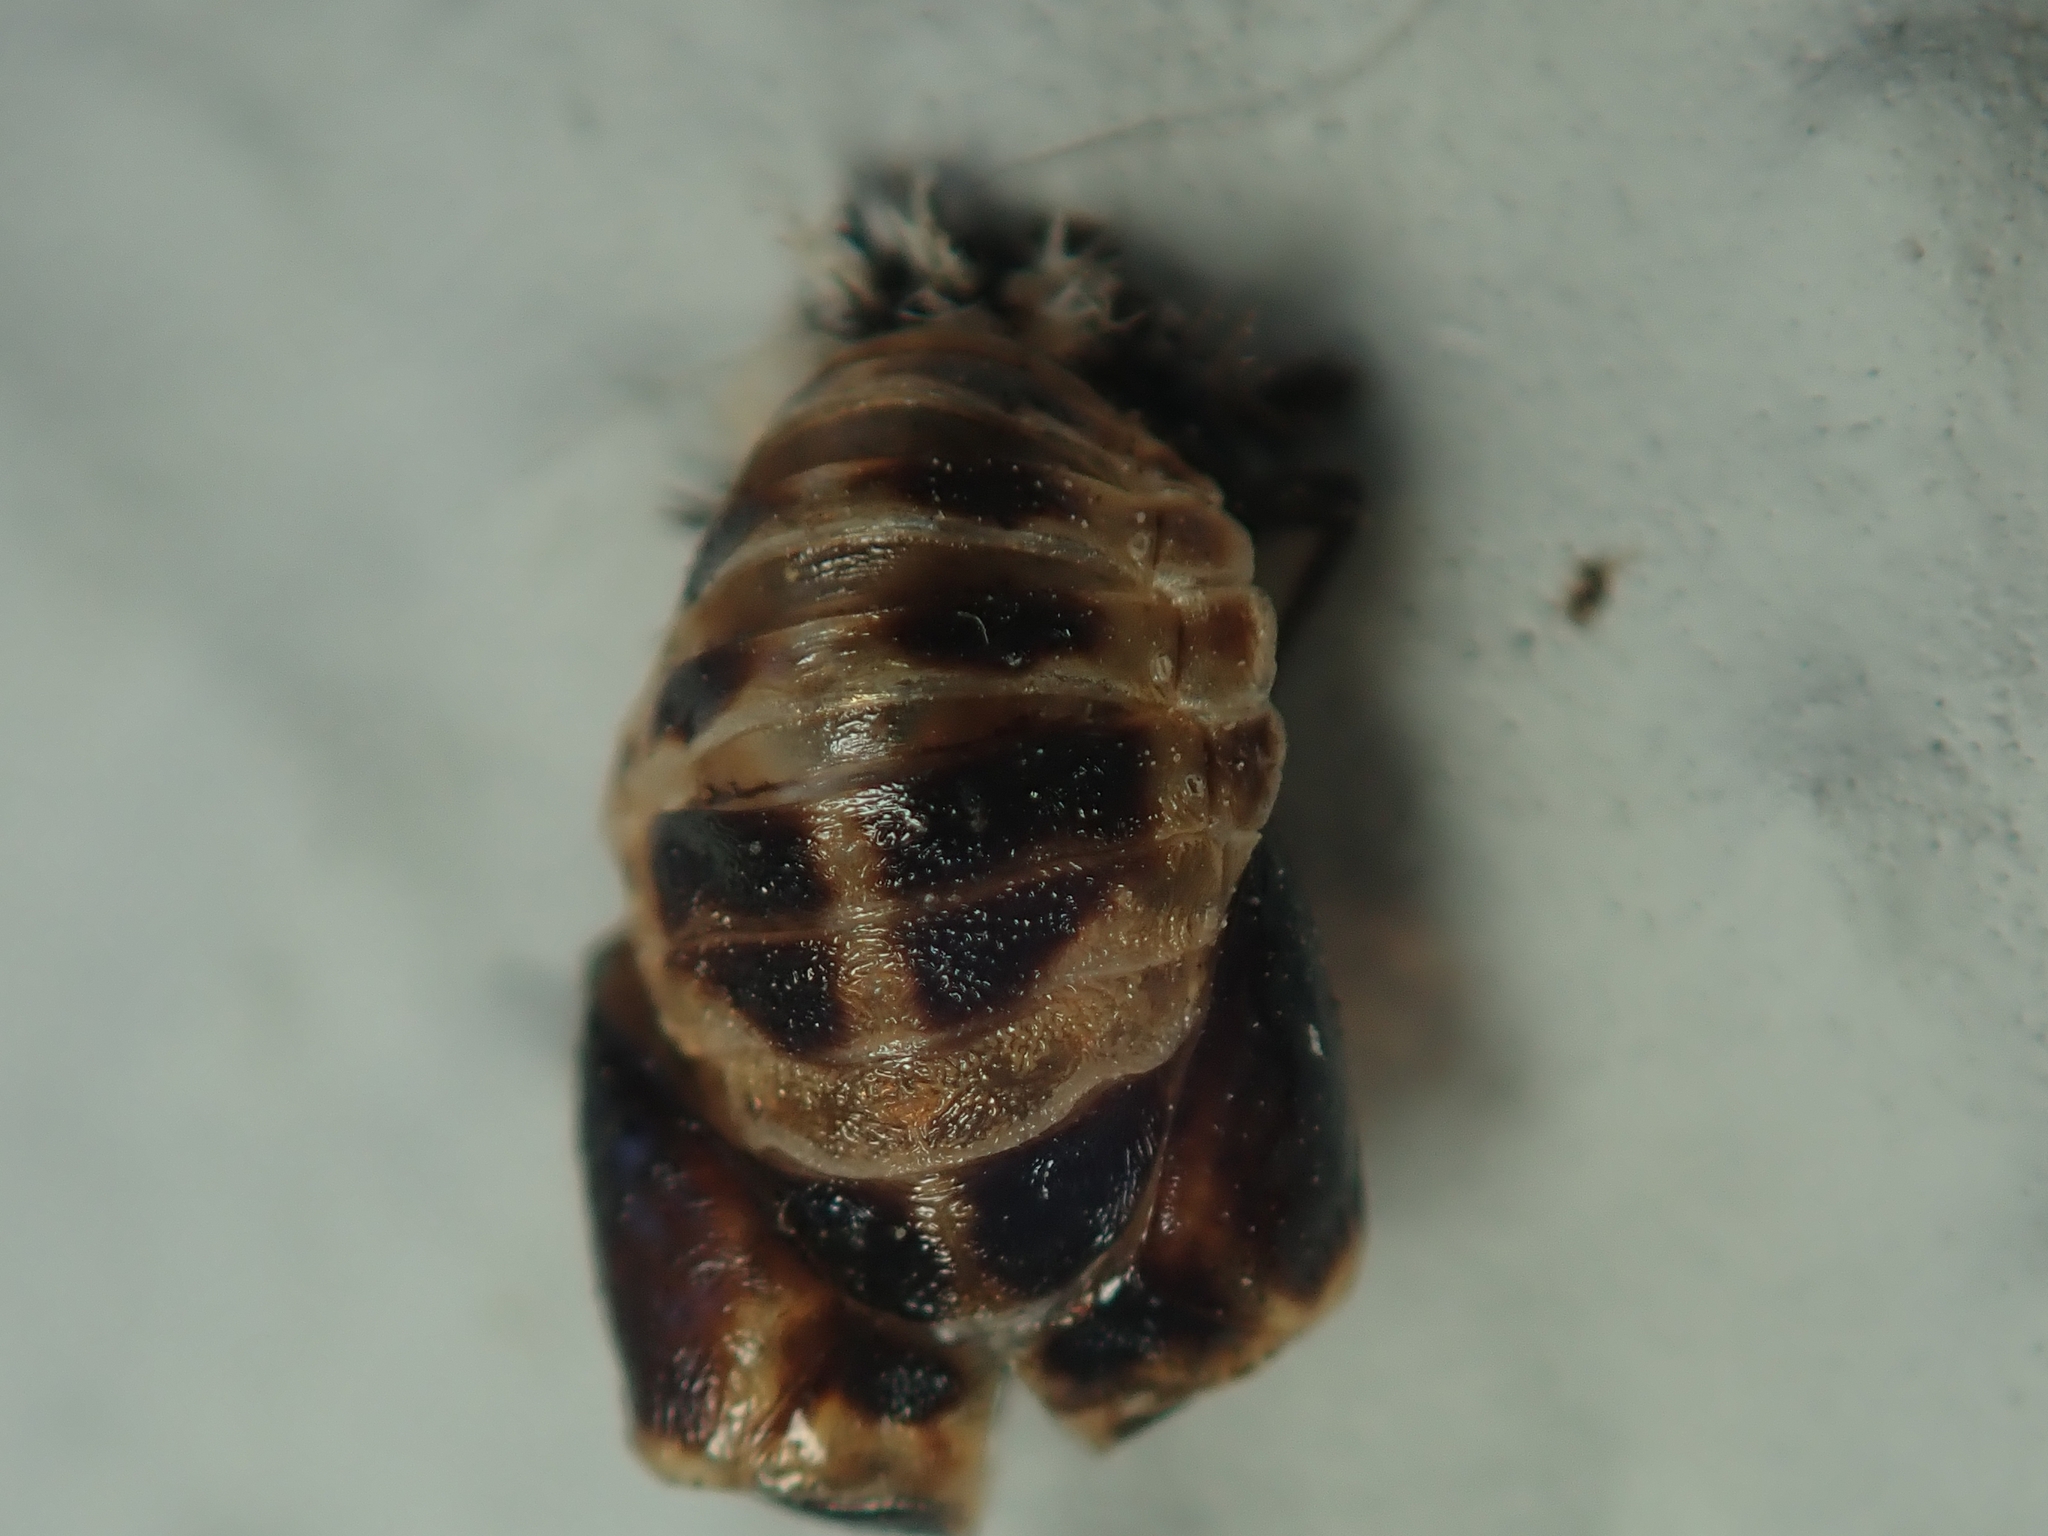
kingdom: Animalia
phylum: Arthropoda
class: Insecta
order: Coleoptera
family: Coccinellidae
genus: Harmonia
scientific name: Harmonia axyridis
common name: Harlequin ladybird
